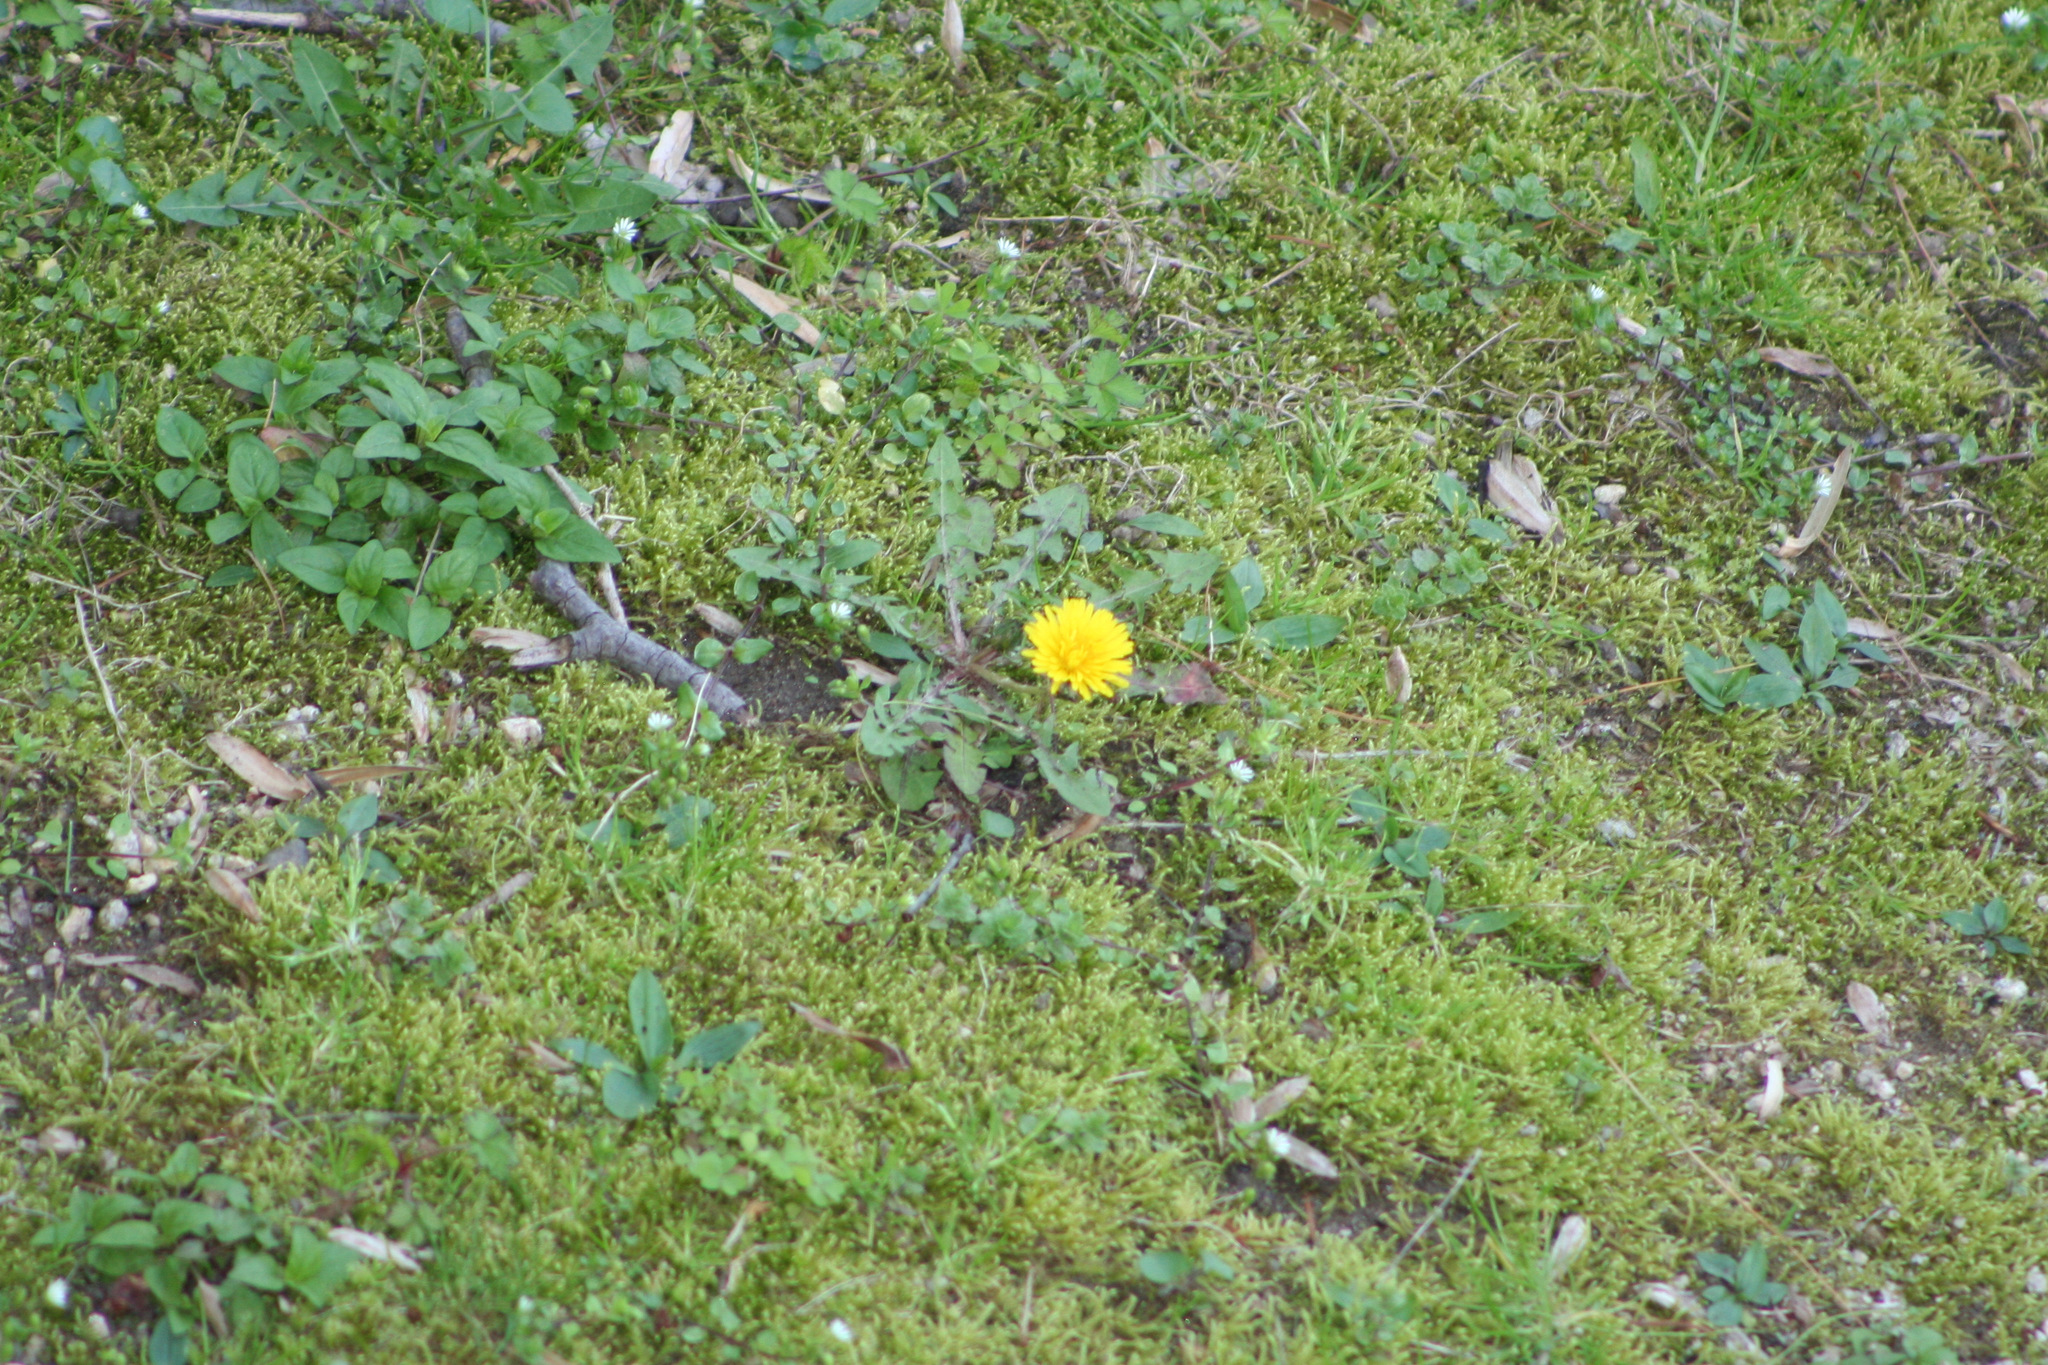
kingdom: Plantae
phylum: Tracheophyta
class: Magnoliopsida
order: Asterales
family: Asteraceae
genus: Taraxacum
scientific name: Taraxacum officinale
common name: Common dandelion
